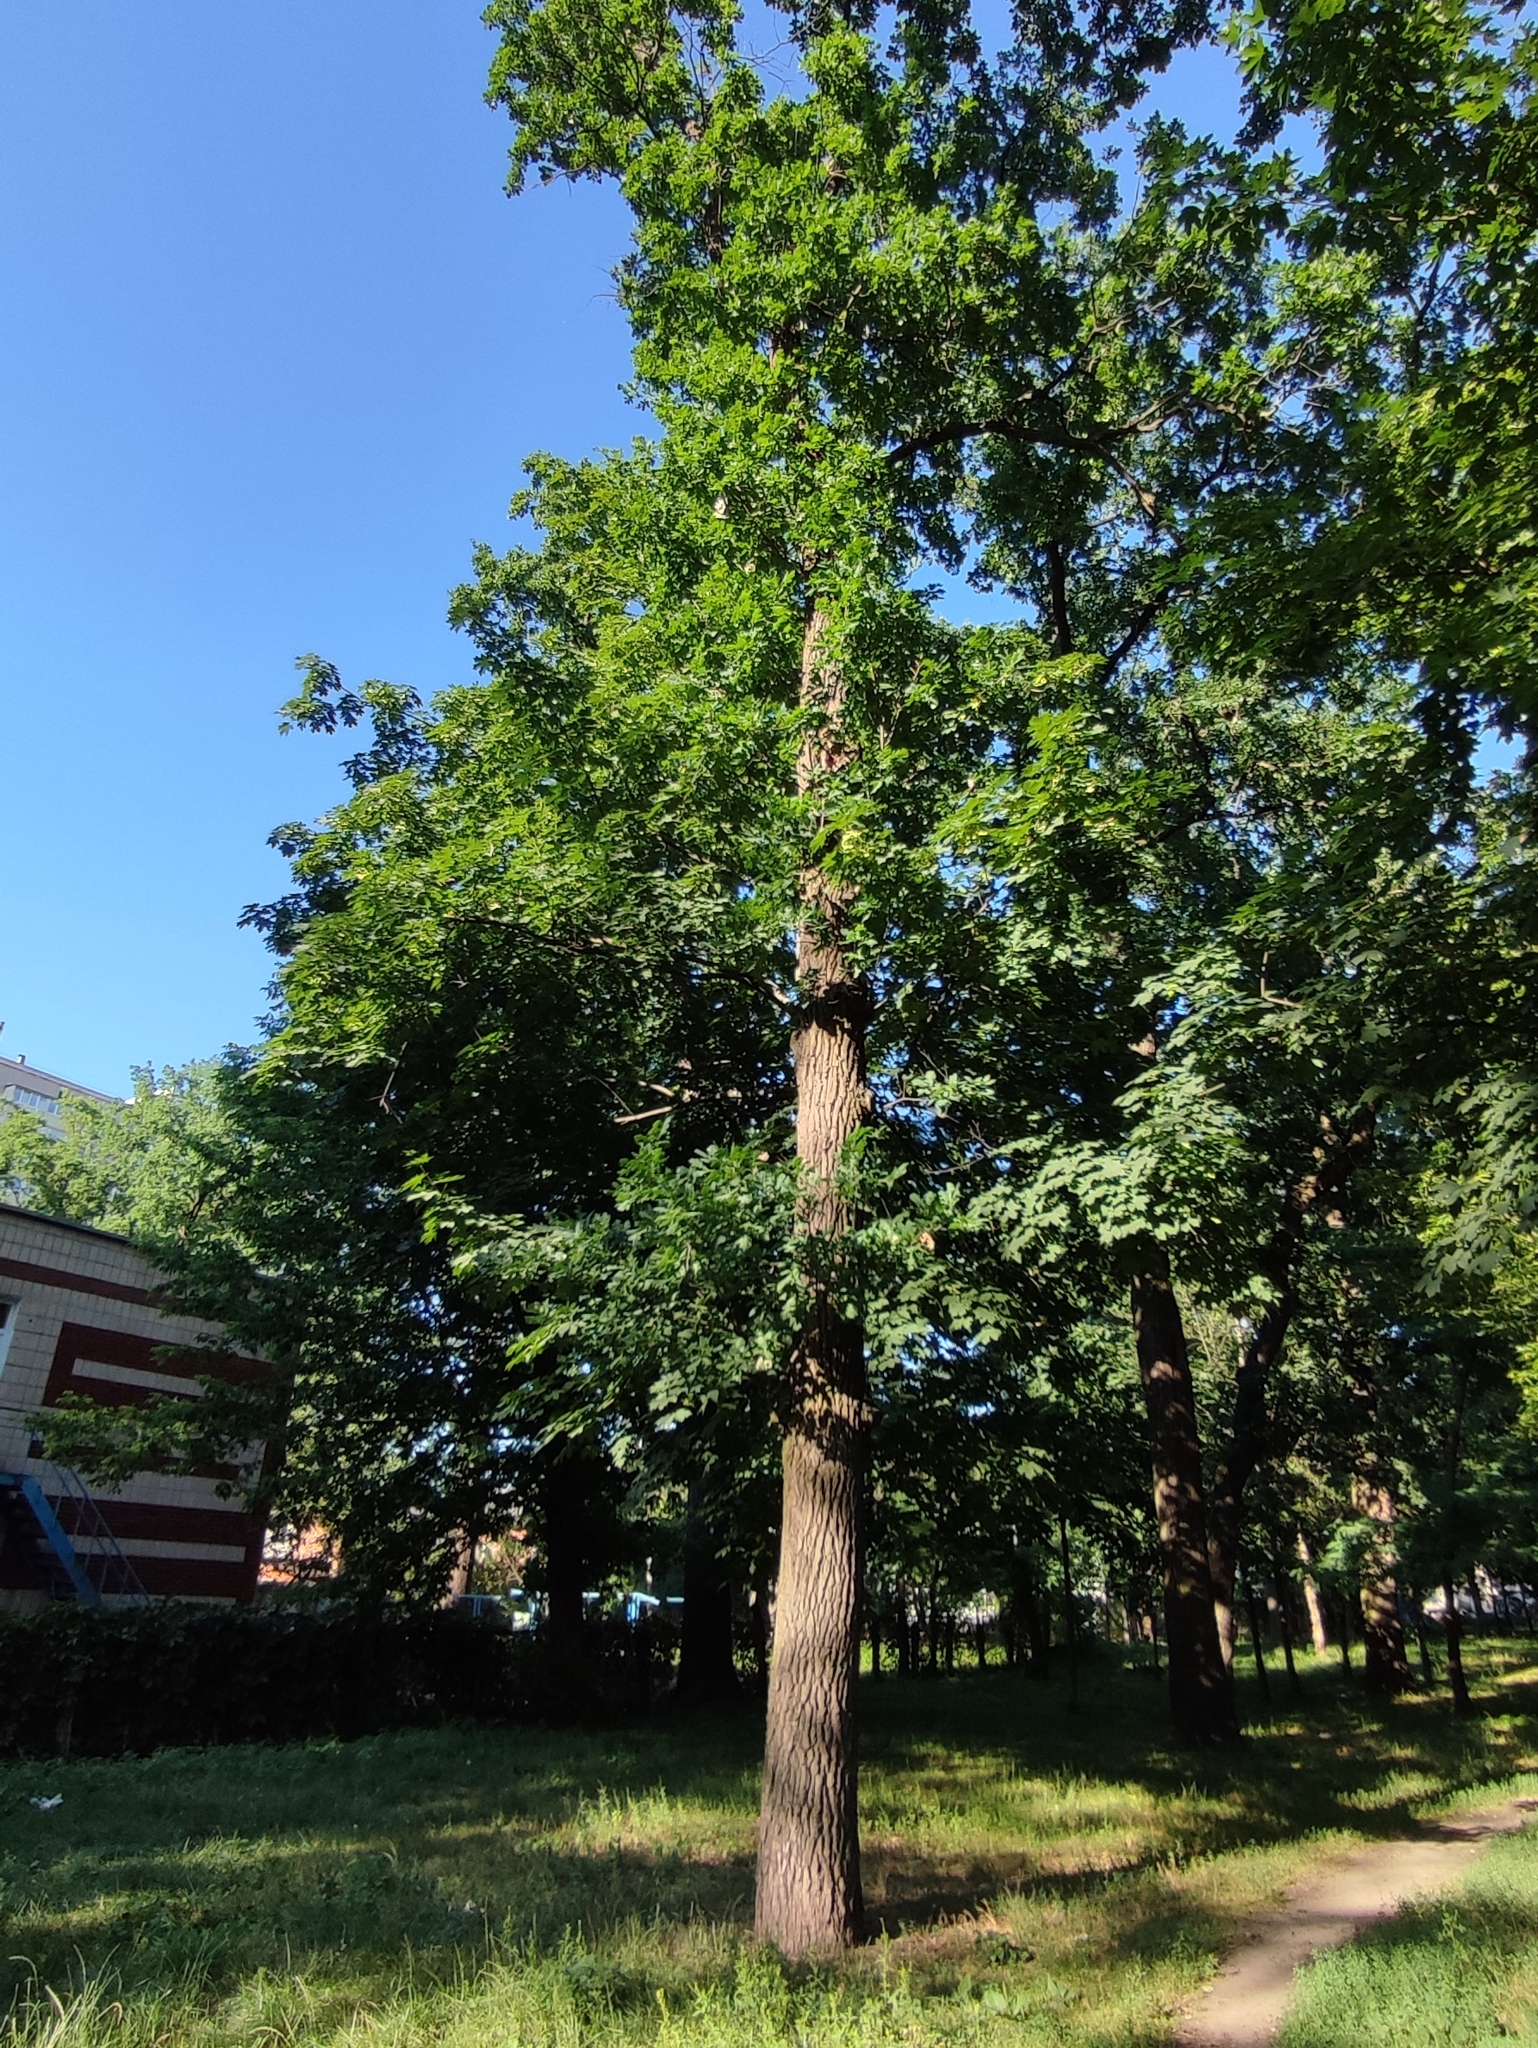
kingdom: Plantae
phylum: Tracheophyta
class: Magnoliopsida
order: Fagales
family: Fagaceae
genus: Quercus
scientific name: Quercus robur
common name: Pedunculate oak
